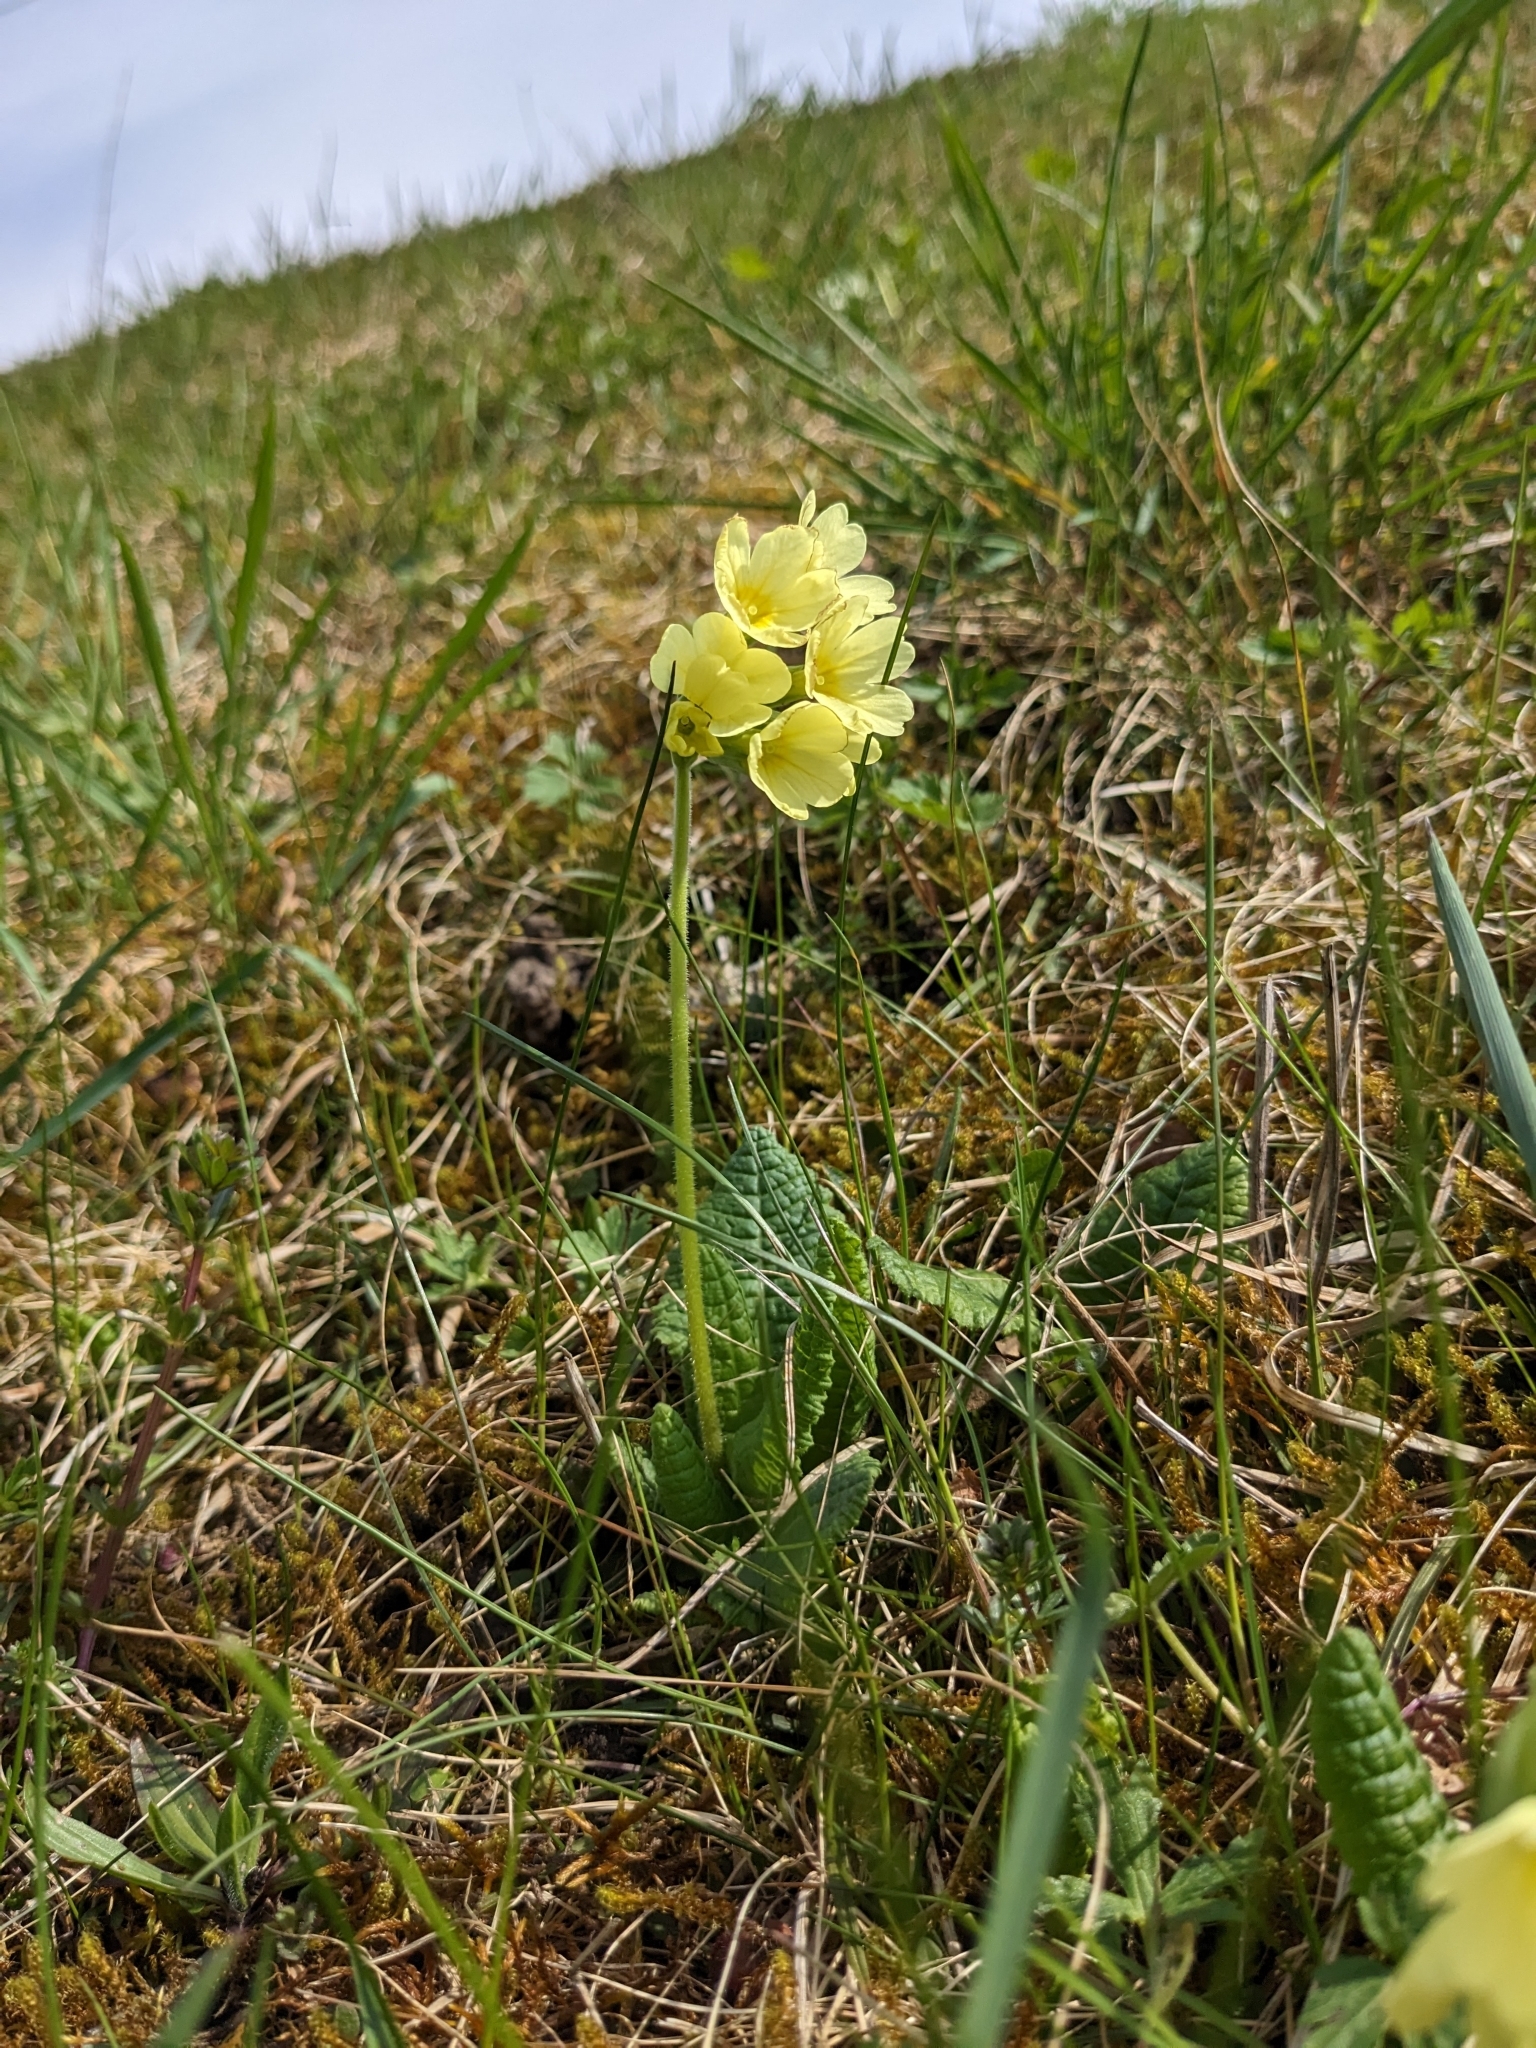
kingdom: Plantae
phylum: Tracheophyta
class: Magnoliopsida
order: Ericales
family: Primulaceae
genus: Primula
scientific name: Primula elatior
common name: Oxlip
